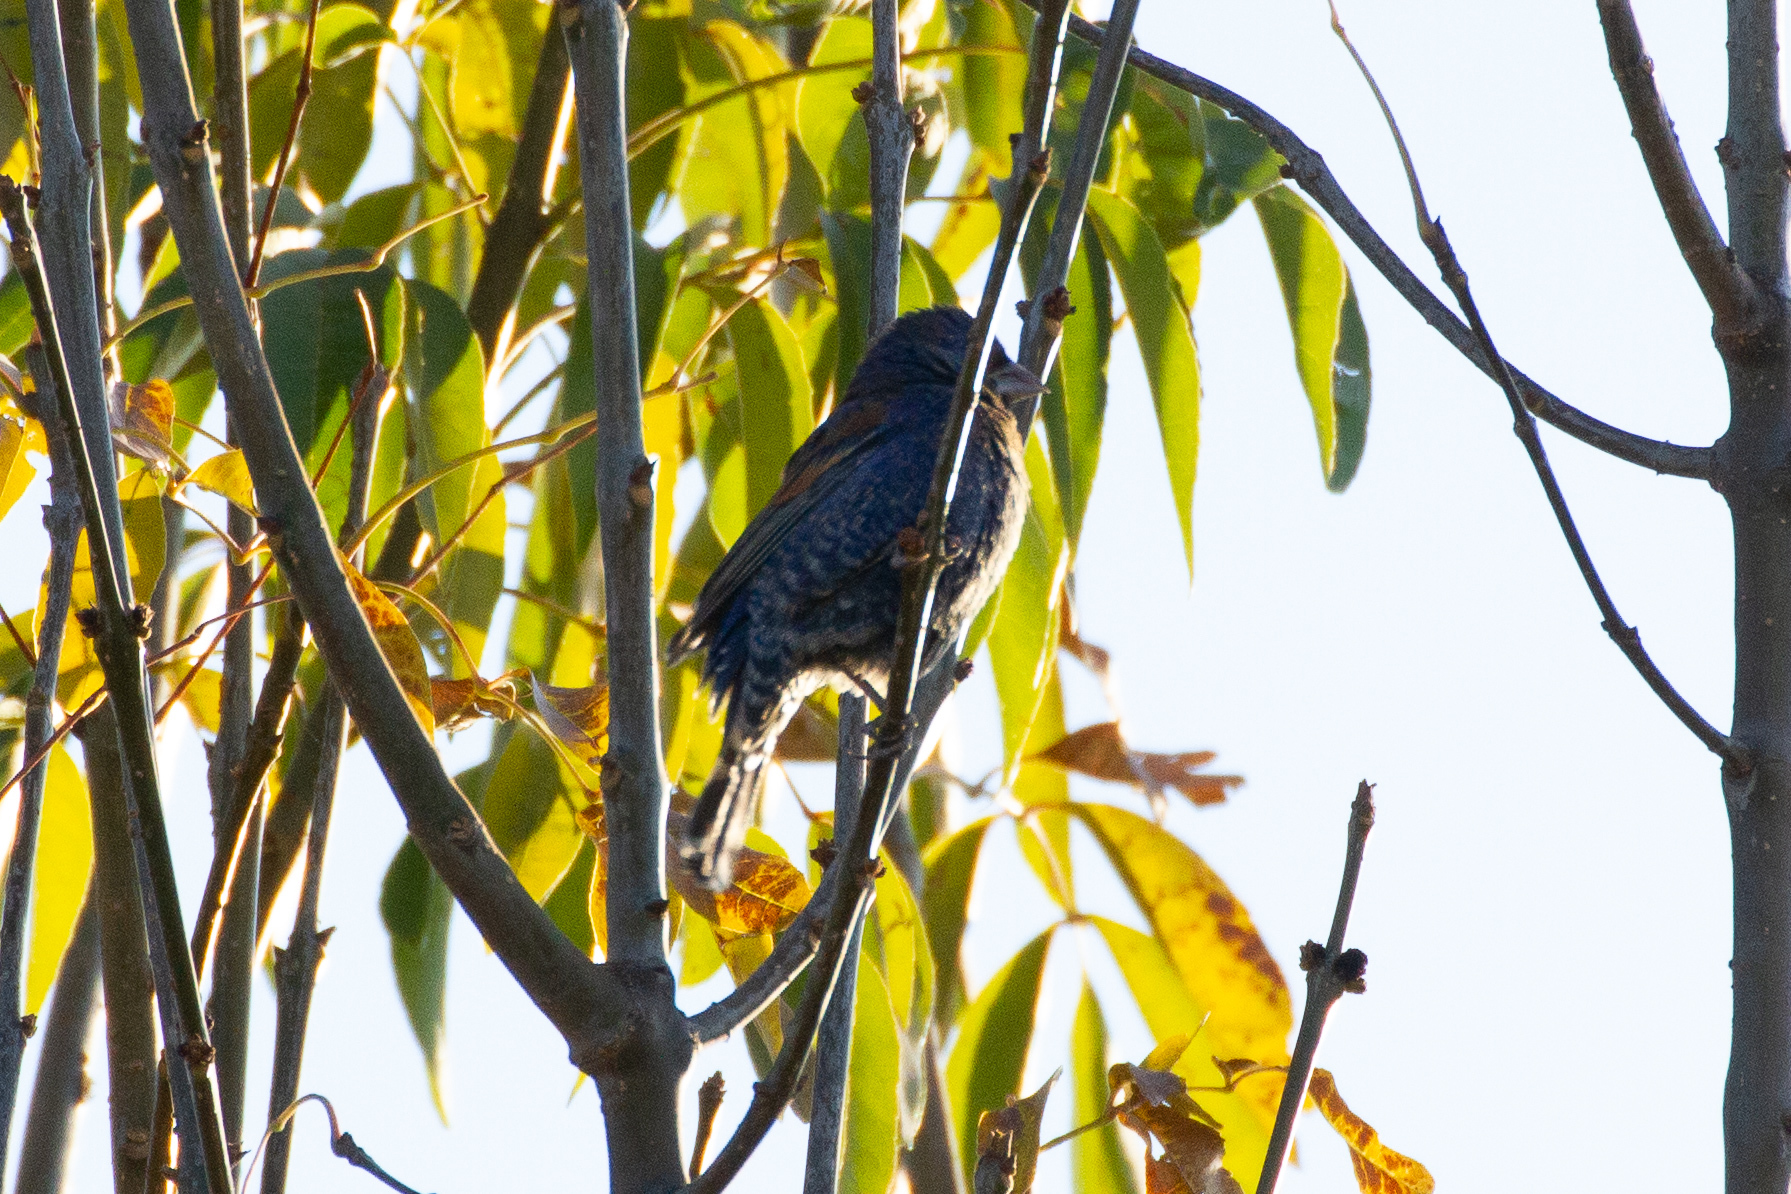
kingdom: Animalia
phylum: Chordata
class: Aves
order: Passeriformes
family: Cardinalidae
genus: Passerina
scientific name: Passerina caerulea
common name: Blue grosbeak
